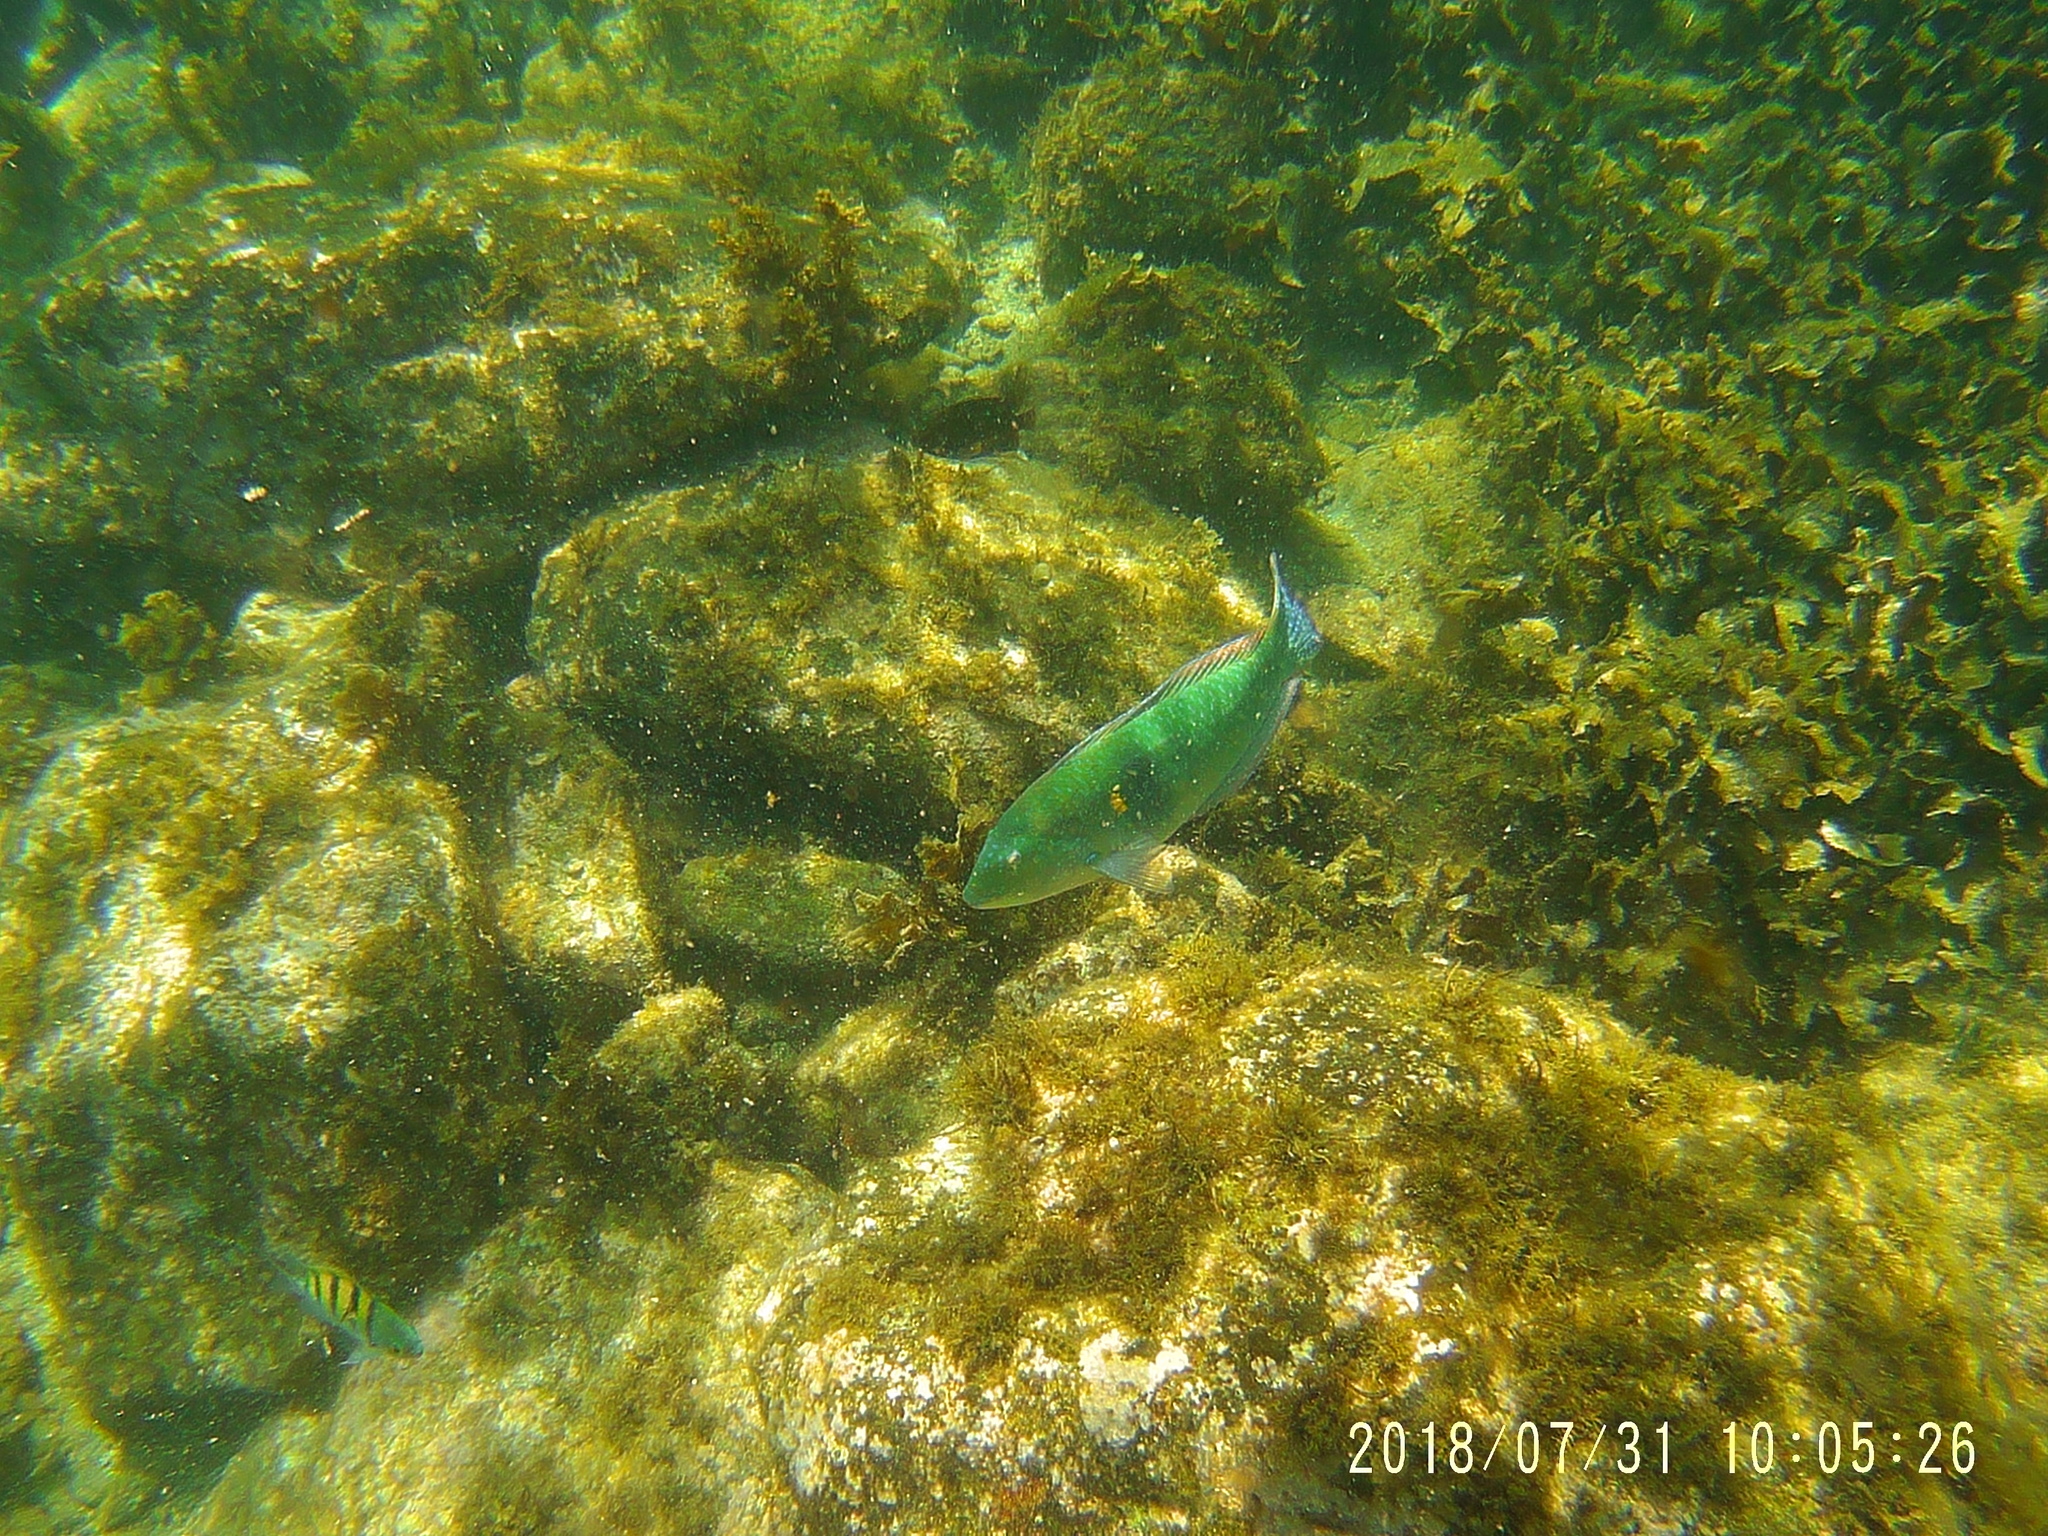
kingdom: Animalia
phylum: Chordata
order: Perciformes
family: Labridae
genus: Halichoeres
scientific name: Halichoeres nicholsi
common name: Spinster wrasse
